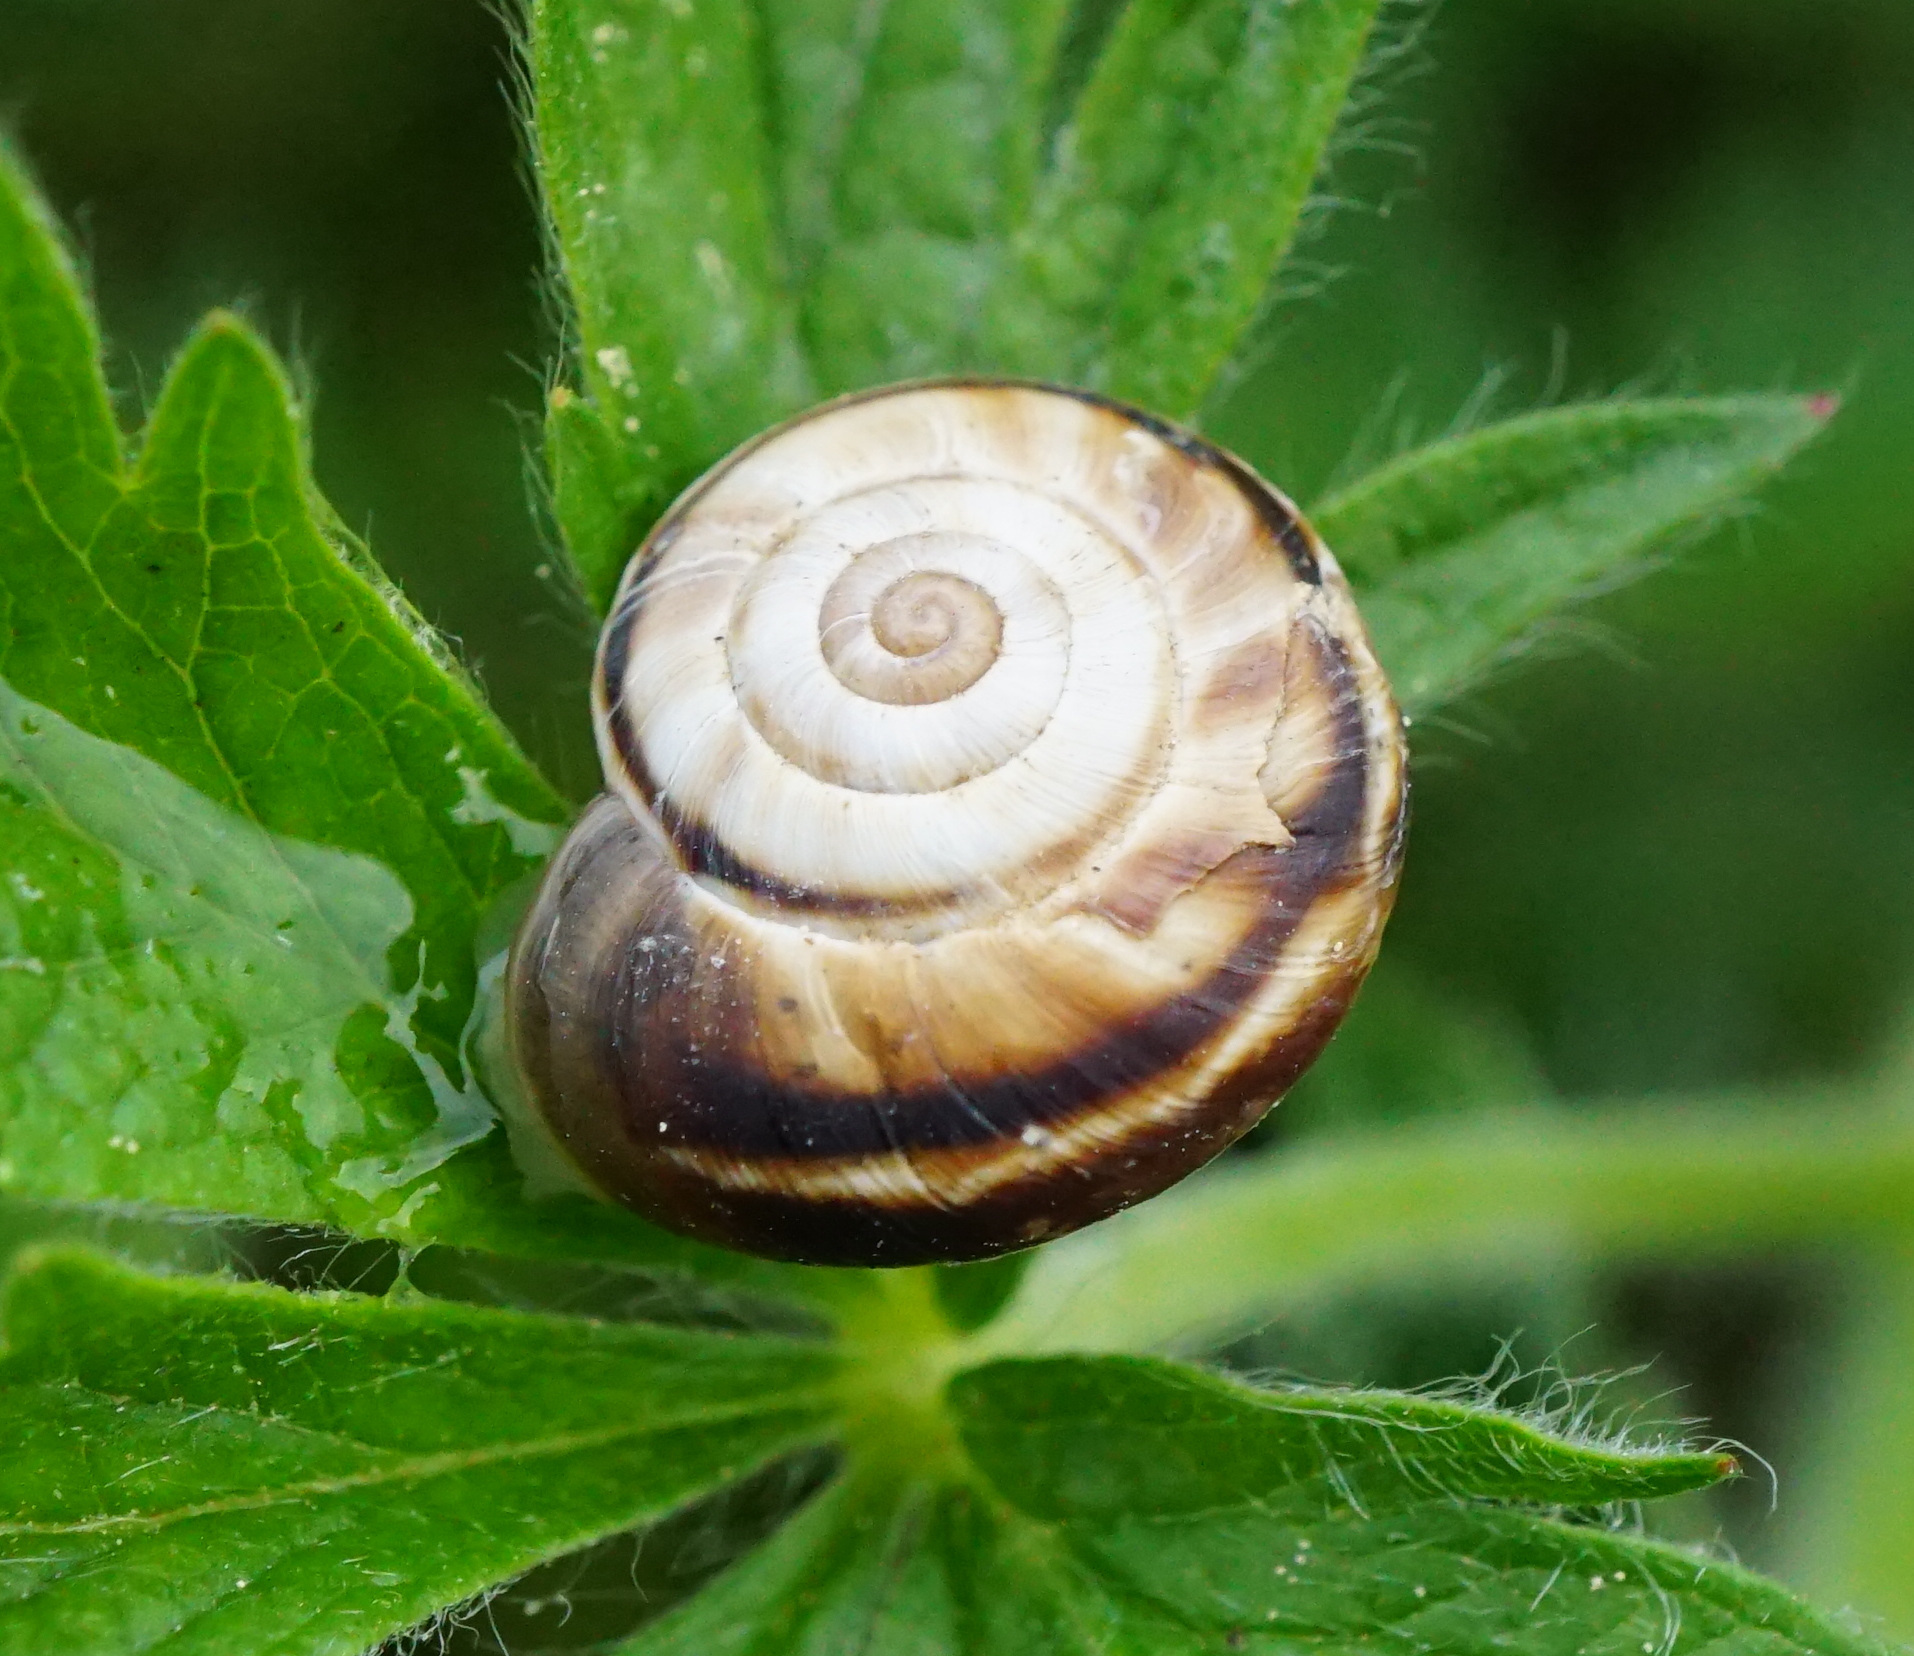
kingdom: Animalia
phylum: Mollusca
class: Gastropoda
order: Stylommatophora
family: Geomitridae
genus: Xerolenta
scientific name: Xerolenta obvia
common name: White heath snail
